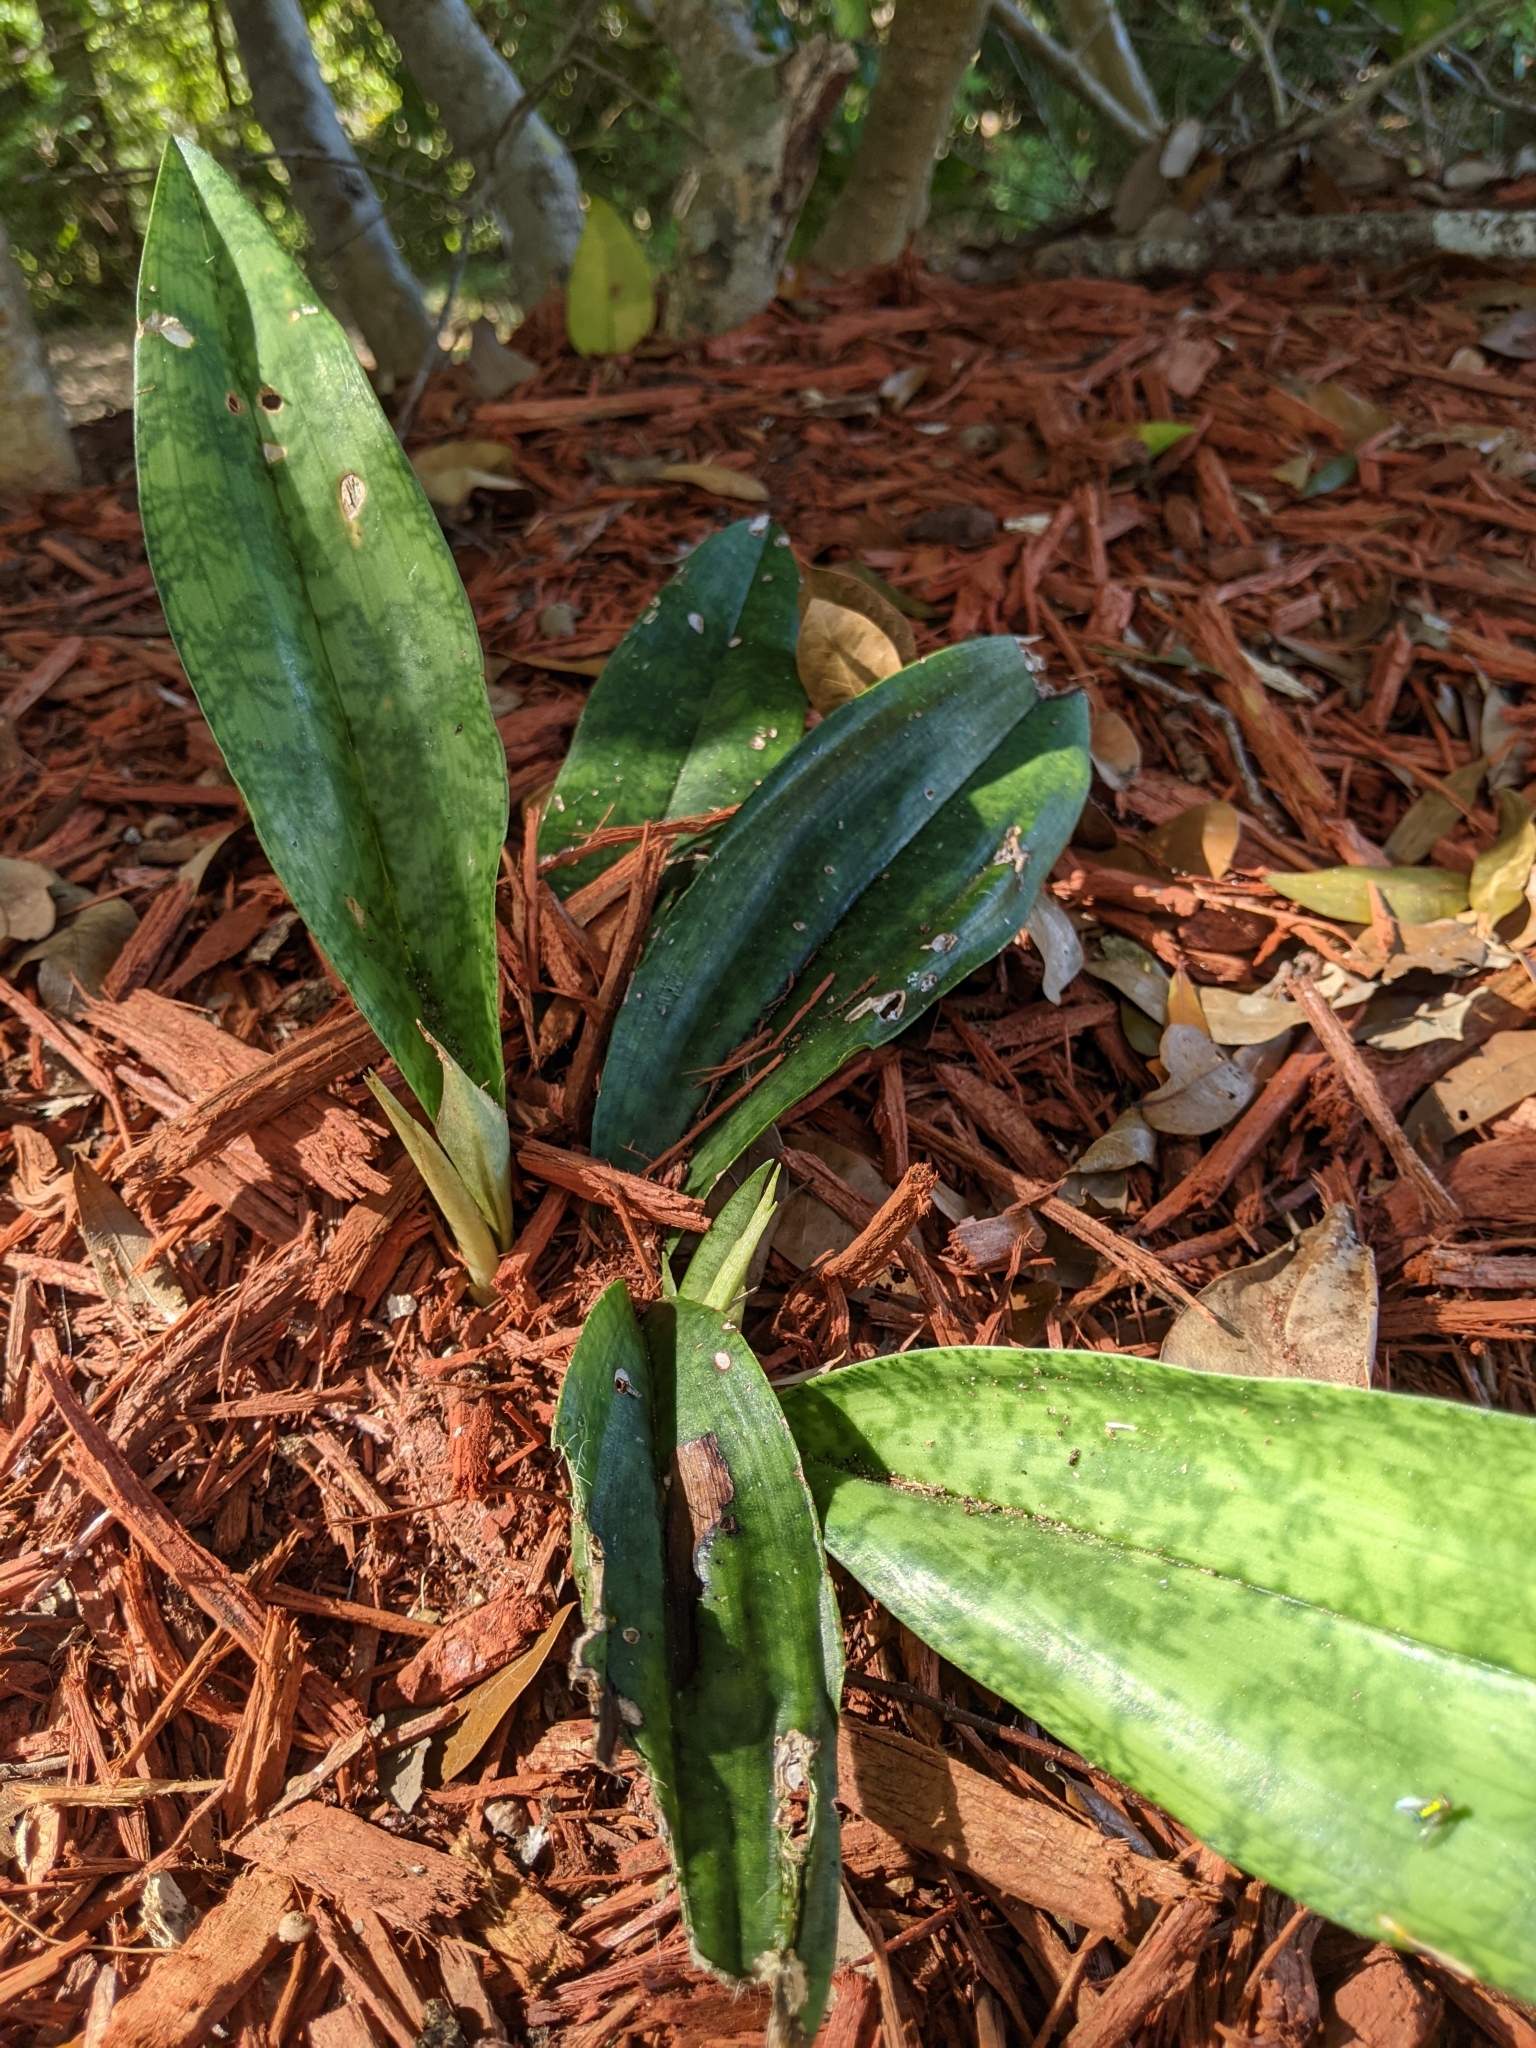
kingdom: Plantae
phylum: Tracheophyta
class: Liliopsida
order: Asparagales
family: Orchidaceae
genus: Eulophia
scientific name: Eulophia maculata
